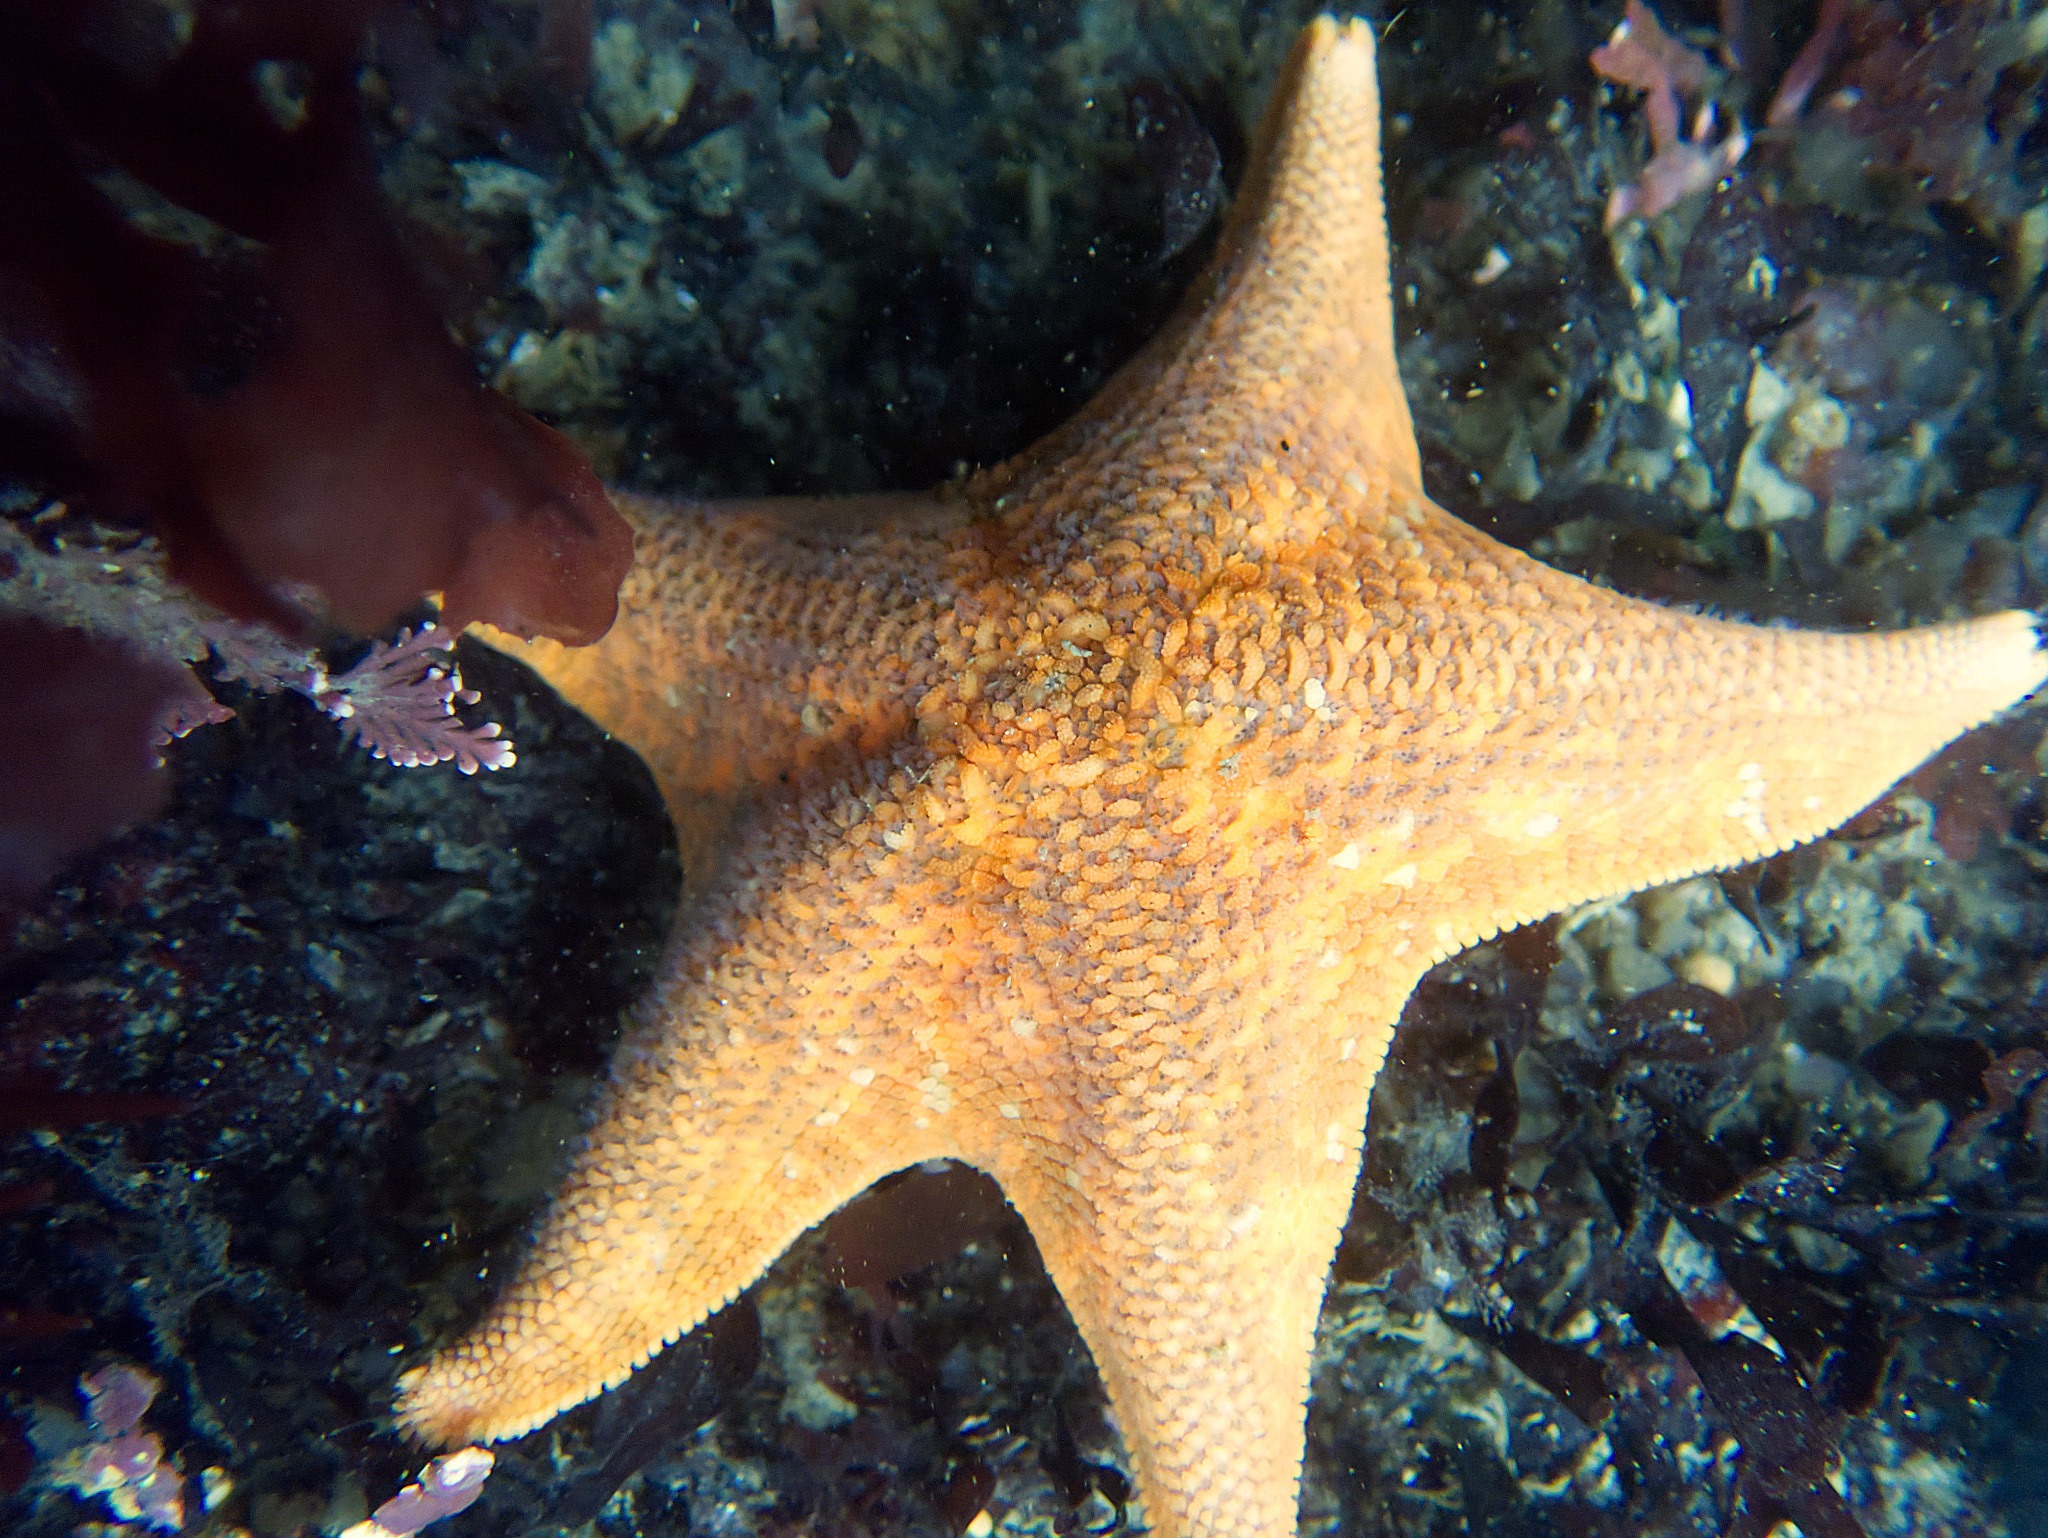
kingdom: Animalia
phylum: Echinodermata
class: Asteroidea
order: Valvatida
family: Asterinidae
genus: Patiria
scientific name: Patiria miniata
